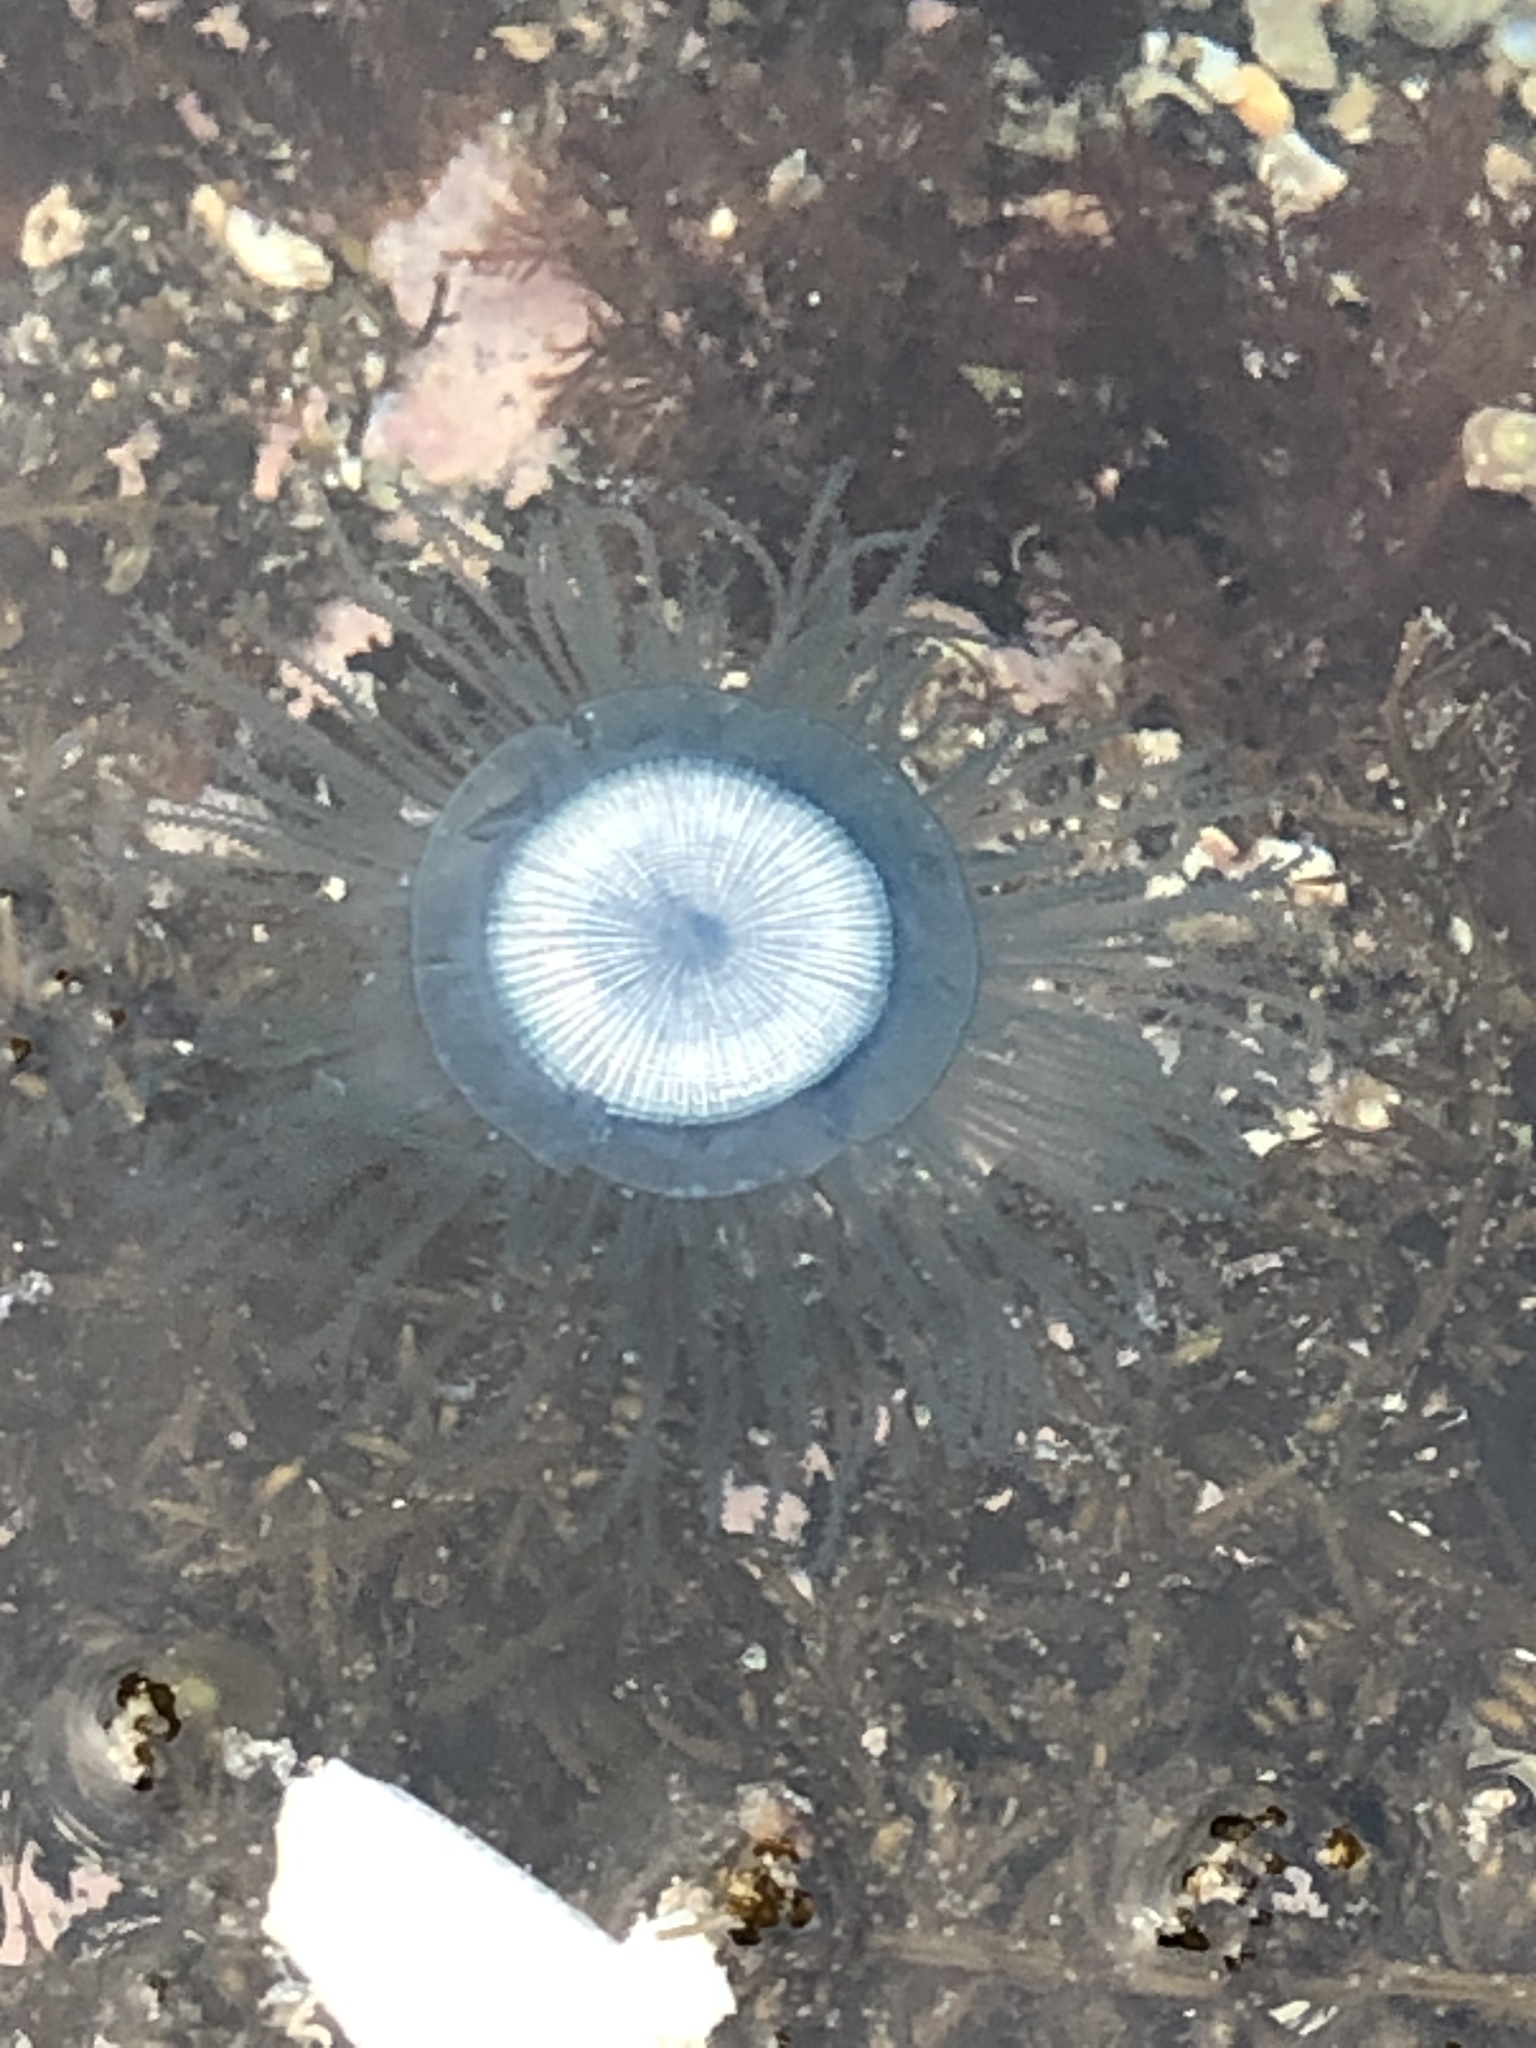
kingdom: Animalia
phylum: Cnidaria
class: Hydrozoa
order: Anthoathecata
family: Porpitidae
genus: Porpita
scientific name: Porpita porpita
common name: Blue button
